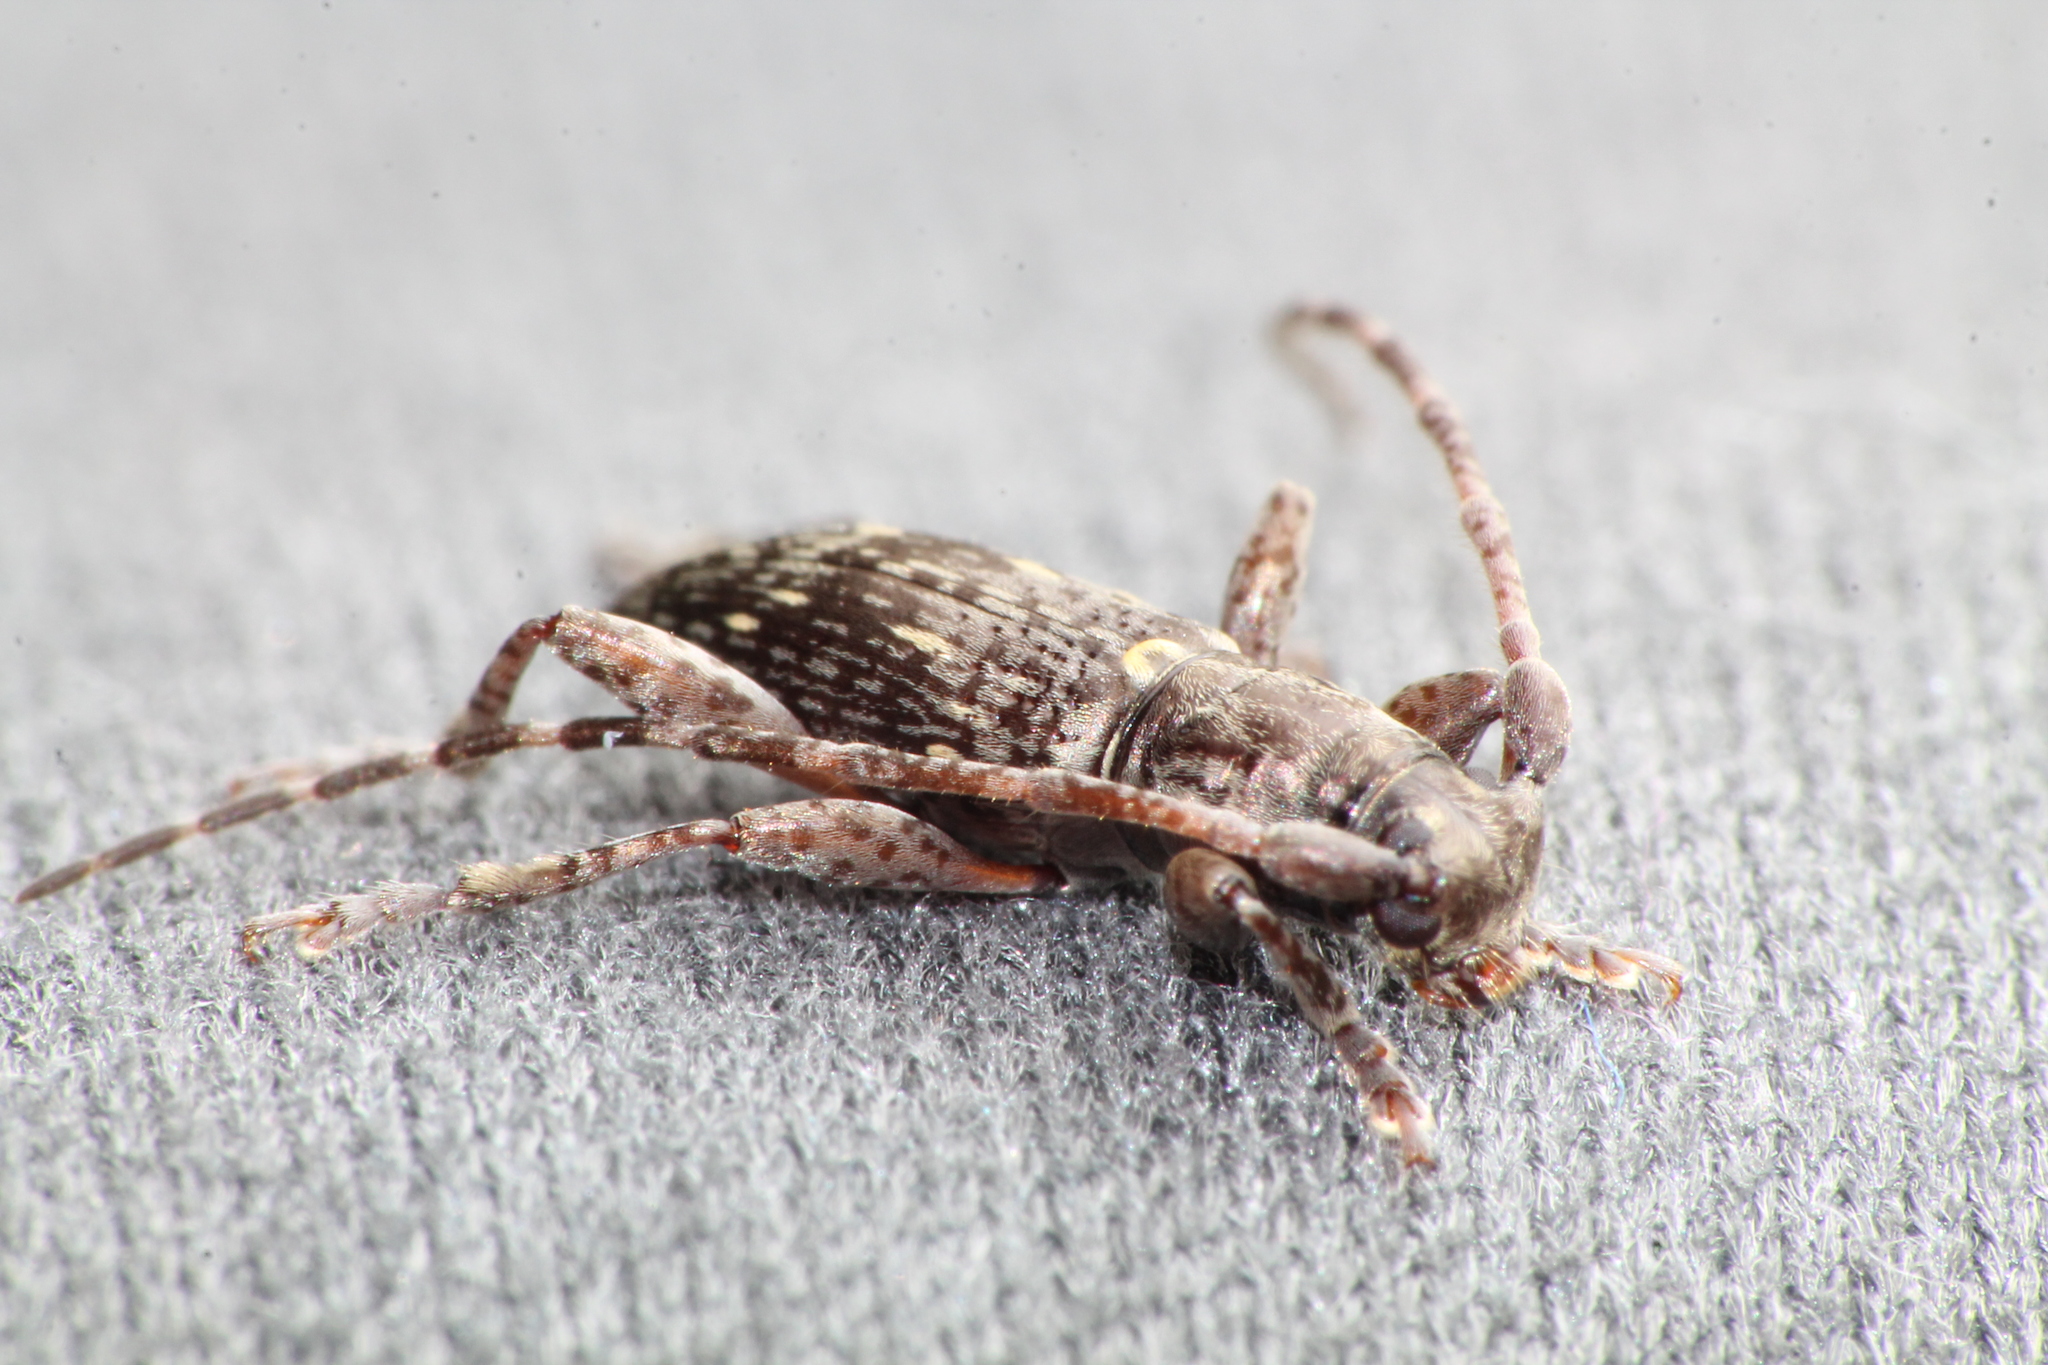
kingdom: Animalia
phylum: Arthropoda
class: Insecta
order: Coleoptera
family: Cerambycidae
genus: Xylotoles
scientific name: Xylotoles griseus
